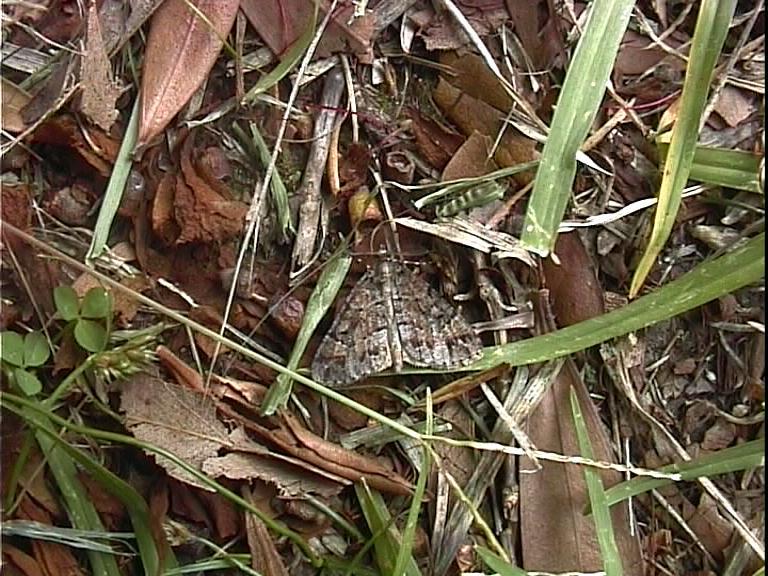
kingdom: Animalia
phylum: Arthropoda
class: Insecta
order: Lepidoptera
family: Geometridae
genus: Pseudocoremia
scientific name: Pseudocoremia productata
